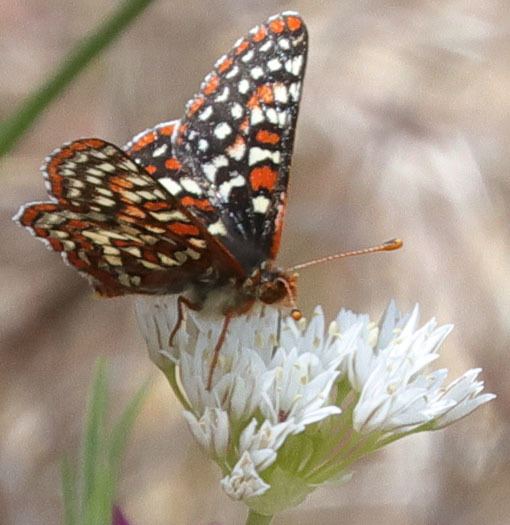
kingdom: Animalia
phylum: Arthropoda
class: Insecta
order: Lepidoptera
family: Nymphalidae
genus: Occidryas
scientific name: Occidryas editha
